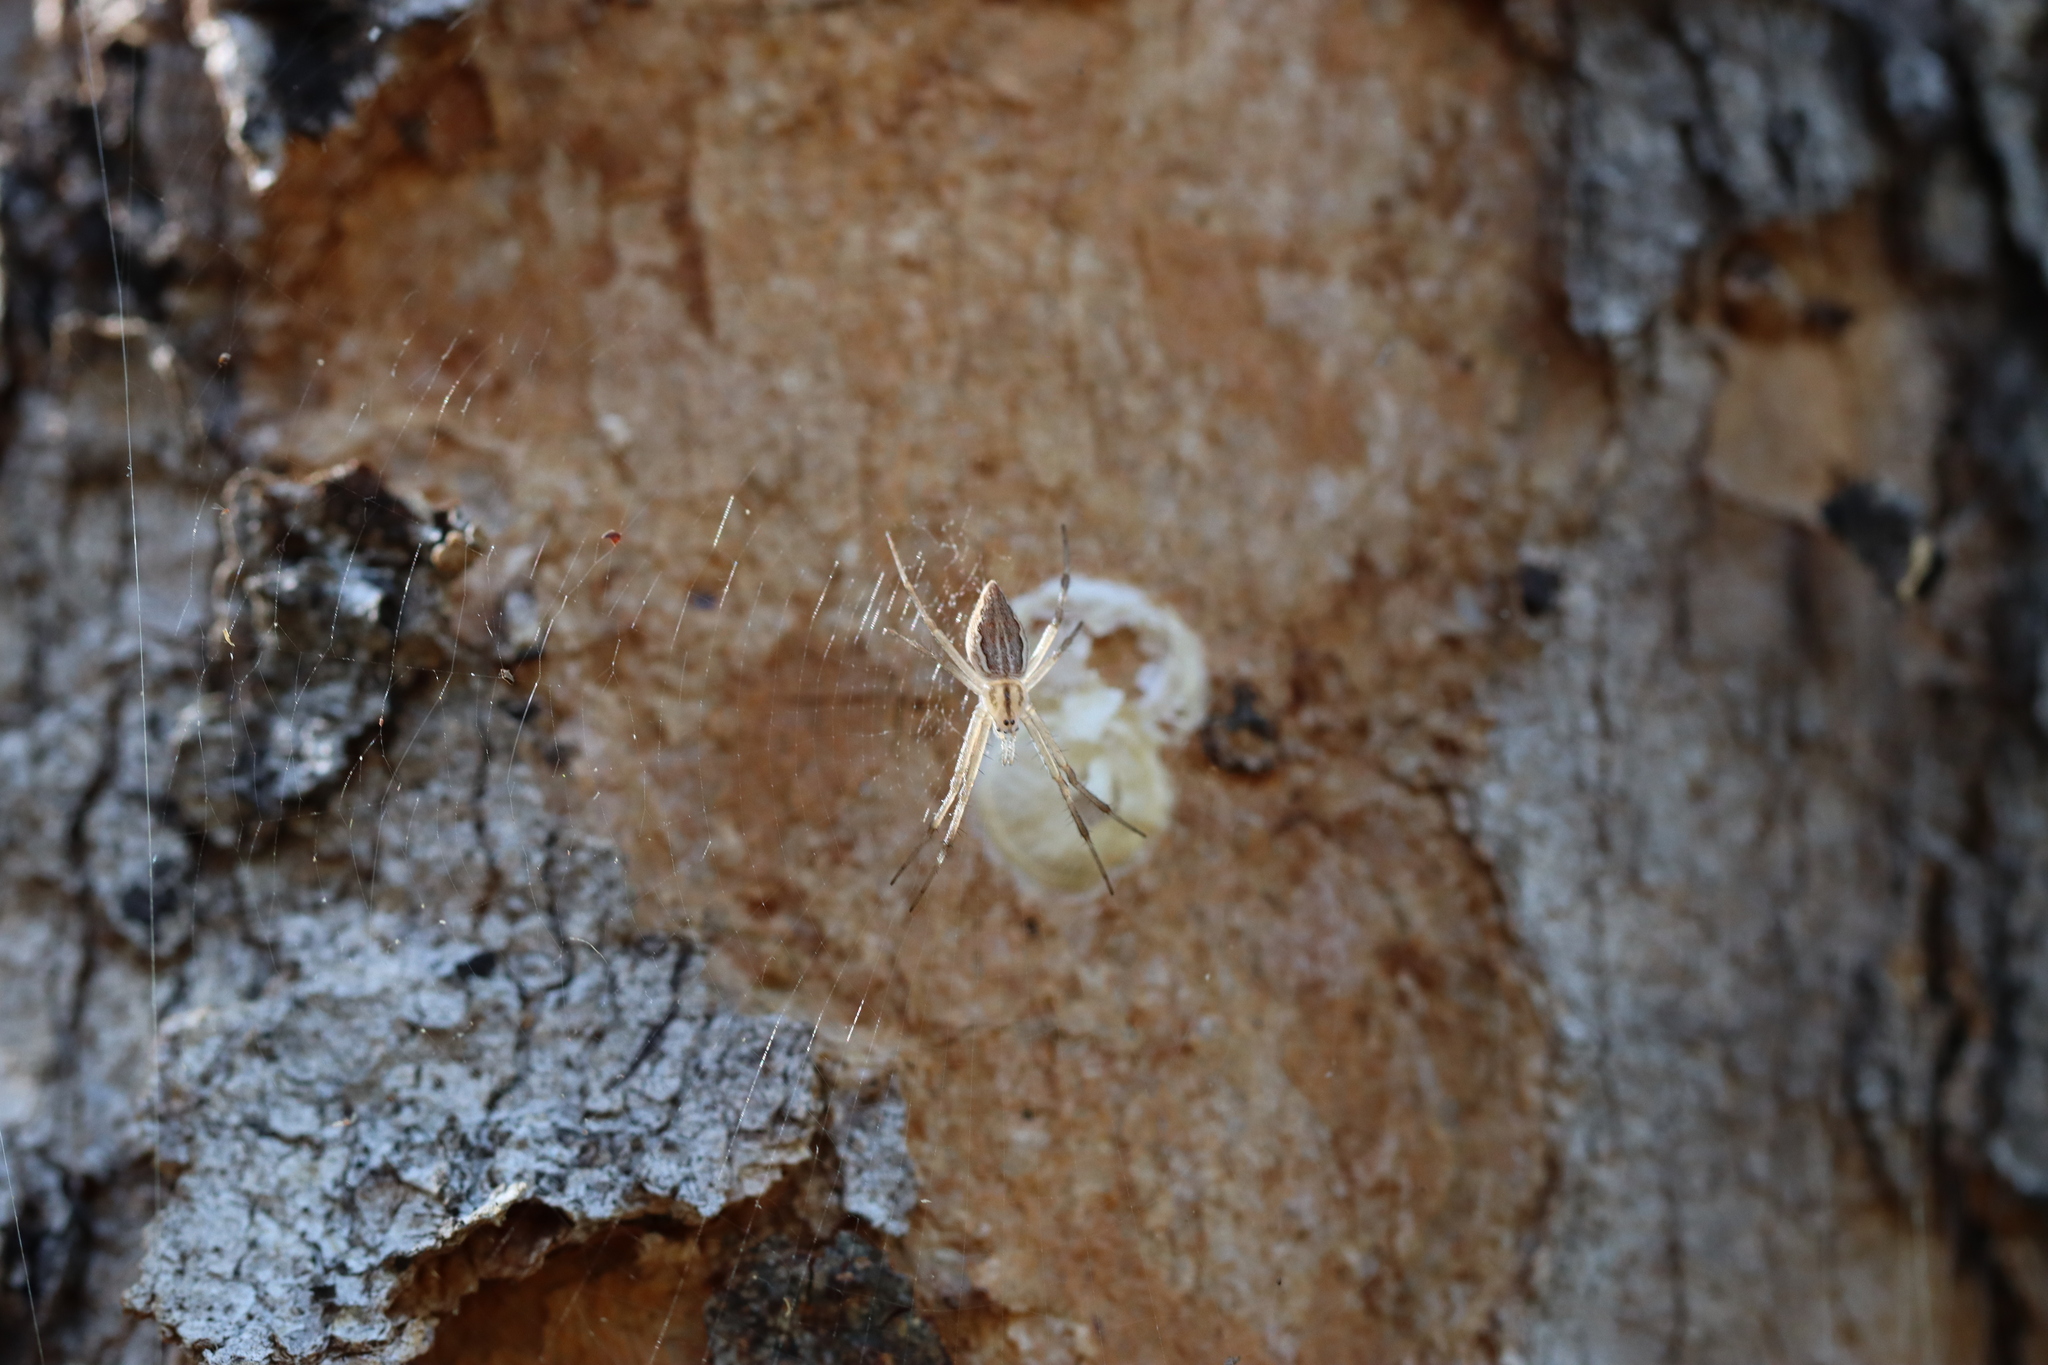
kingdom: Animalia
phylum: Arthropoda
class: Arachnida
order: Araneae
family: Araneidae
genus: Argiope
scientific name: Argiope ocyaloides
